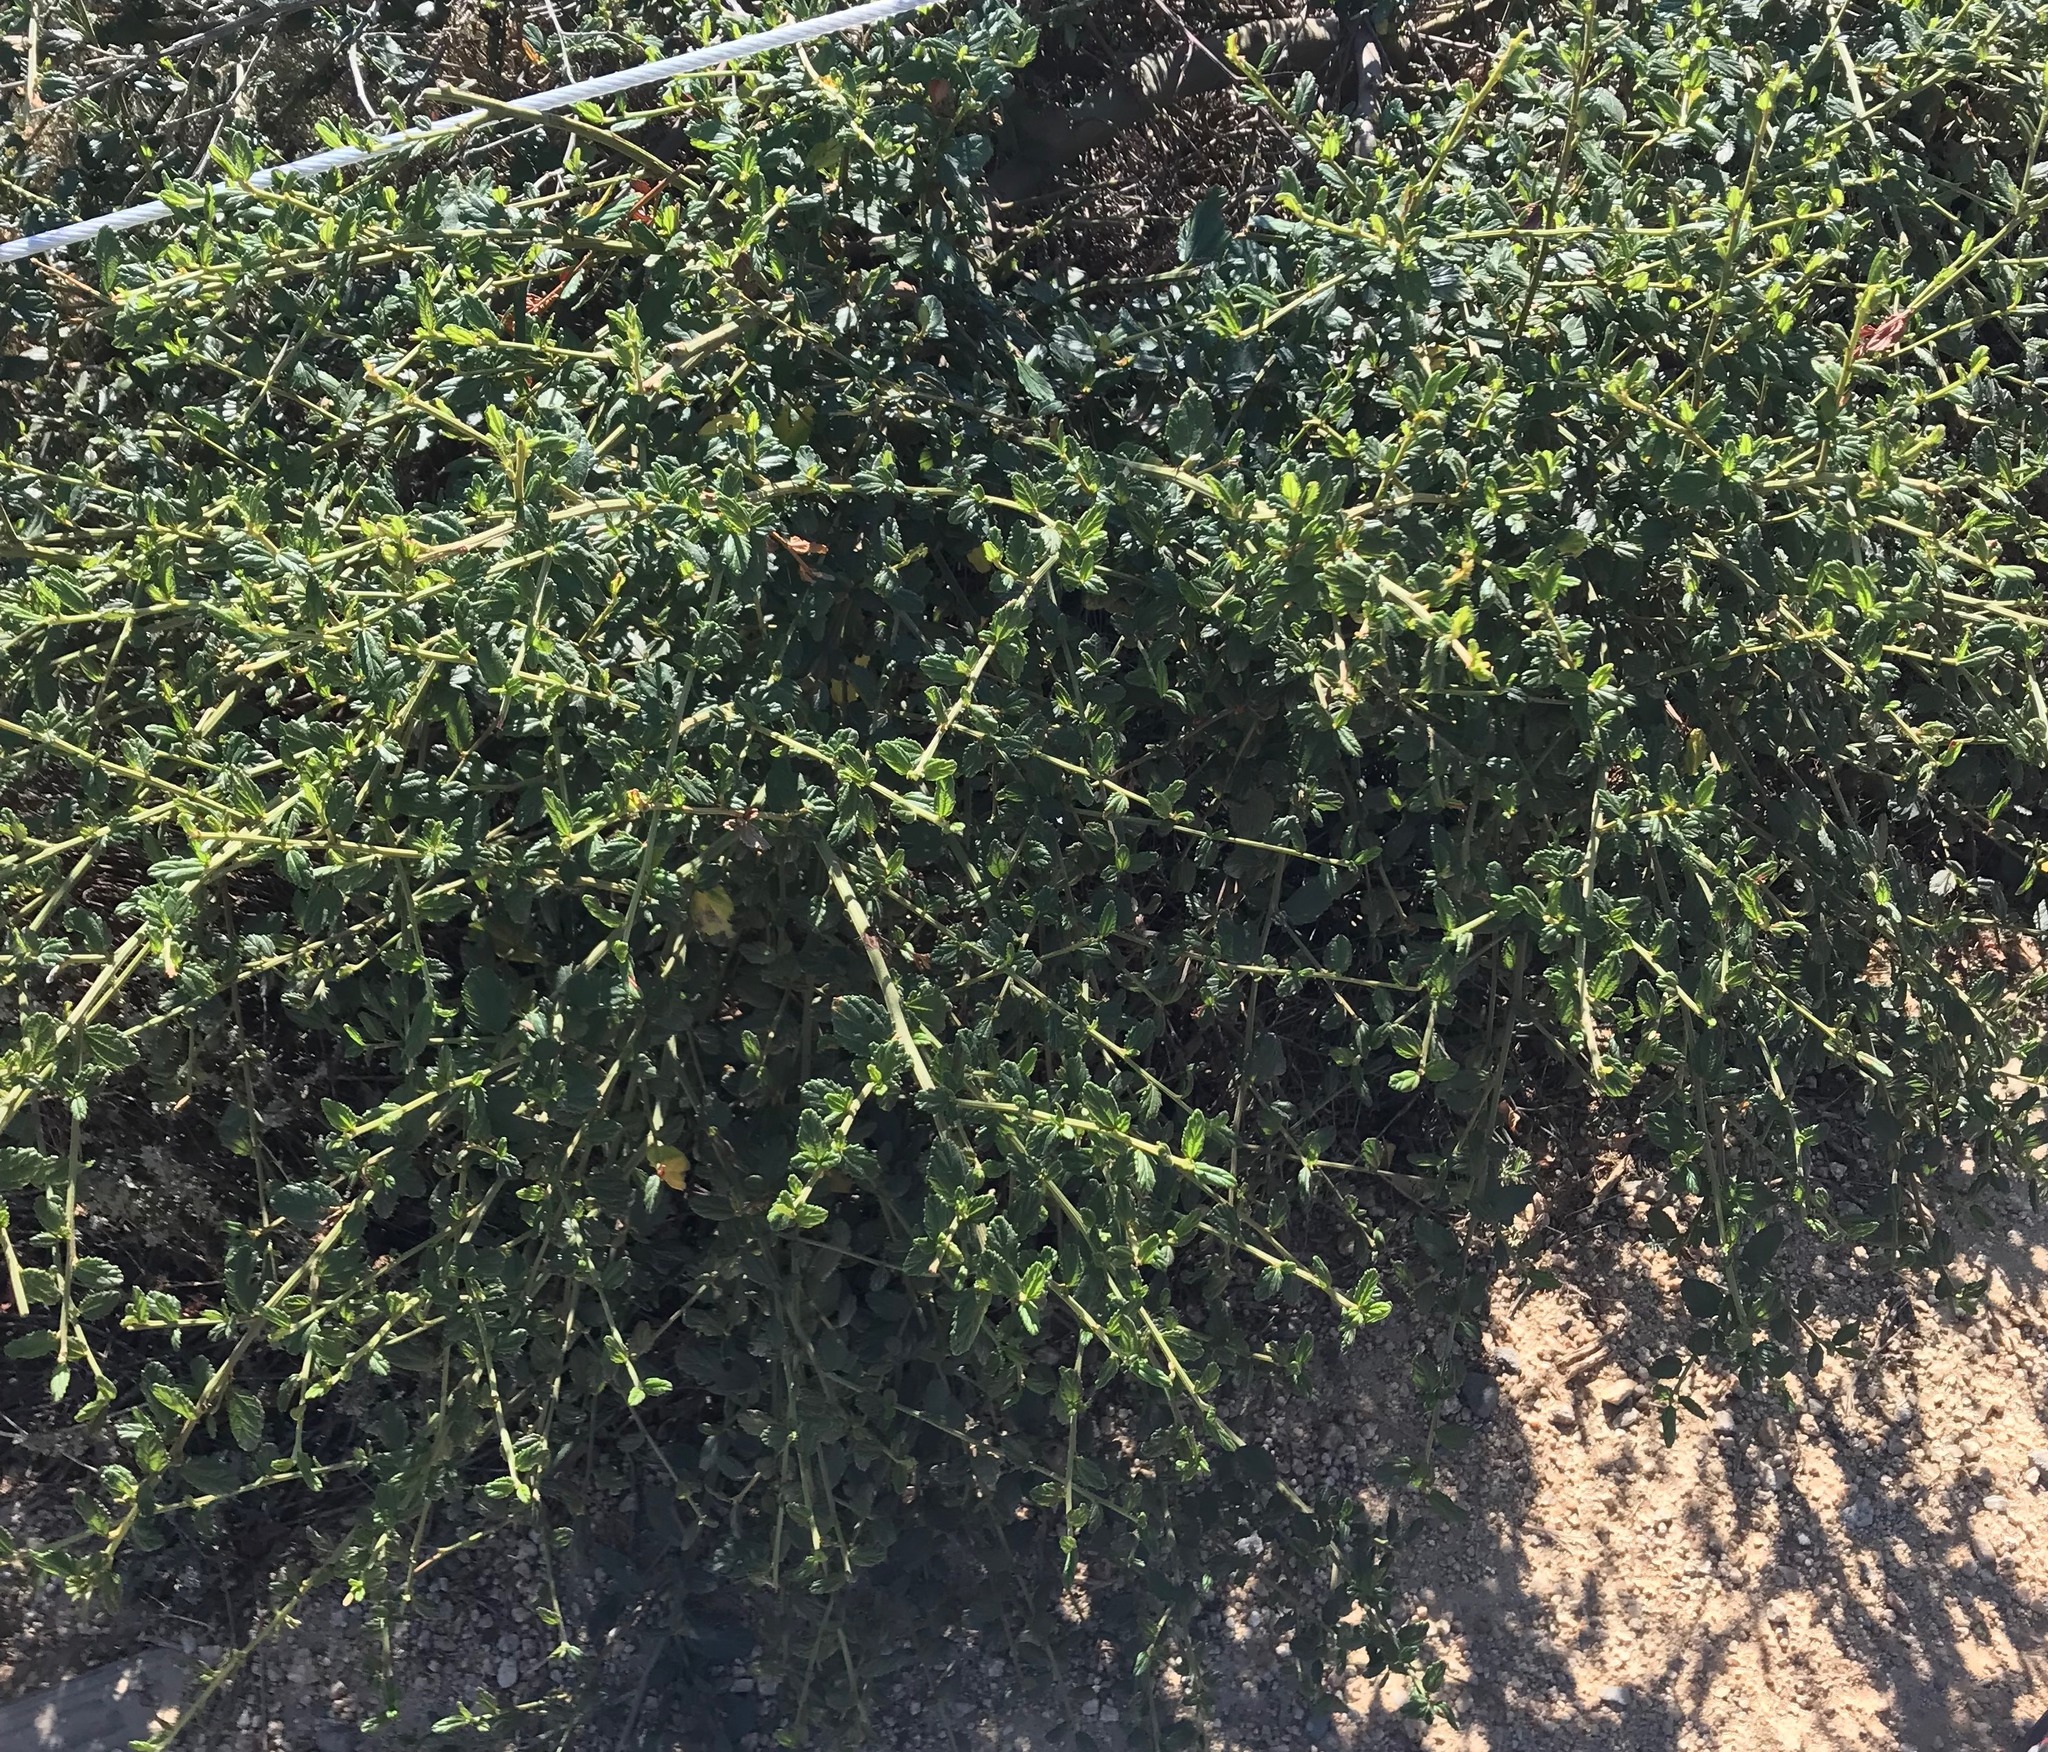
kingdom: Plantae
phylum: Tracheophyta
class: Magnoliopsida
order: Rosales
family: Rhamnaceae
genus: Ceanothus
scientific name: Ceanothus griseus
